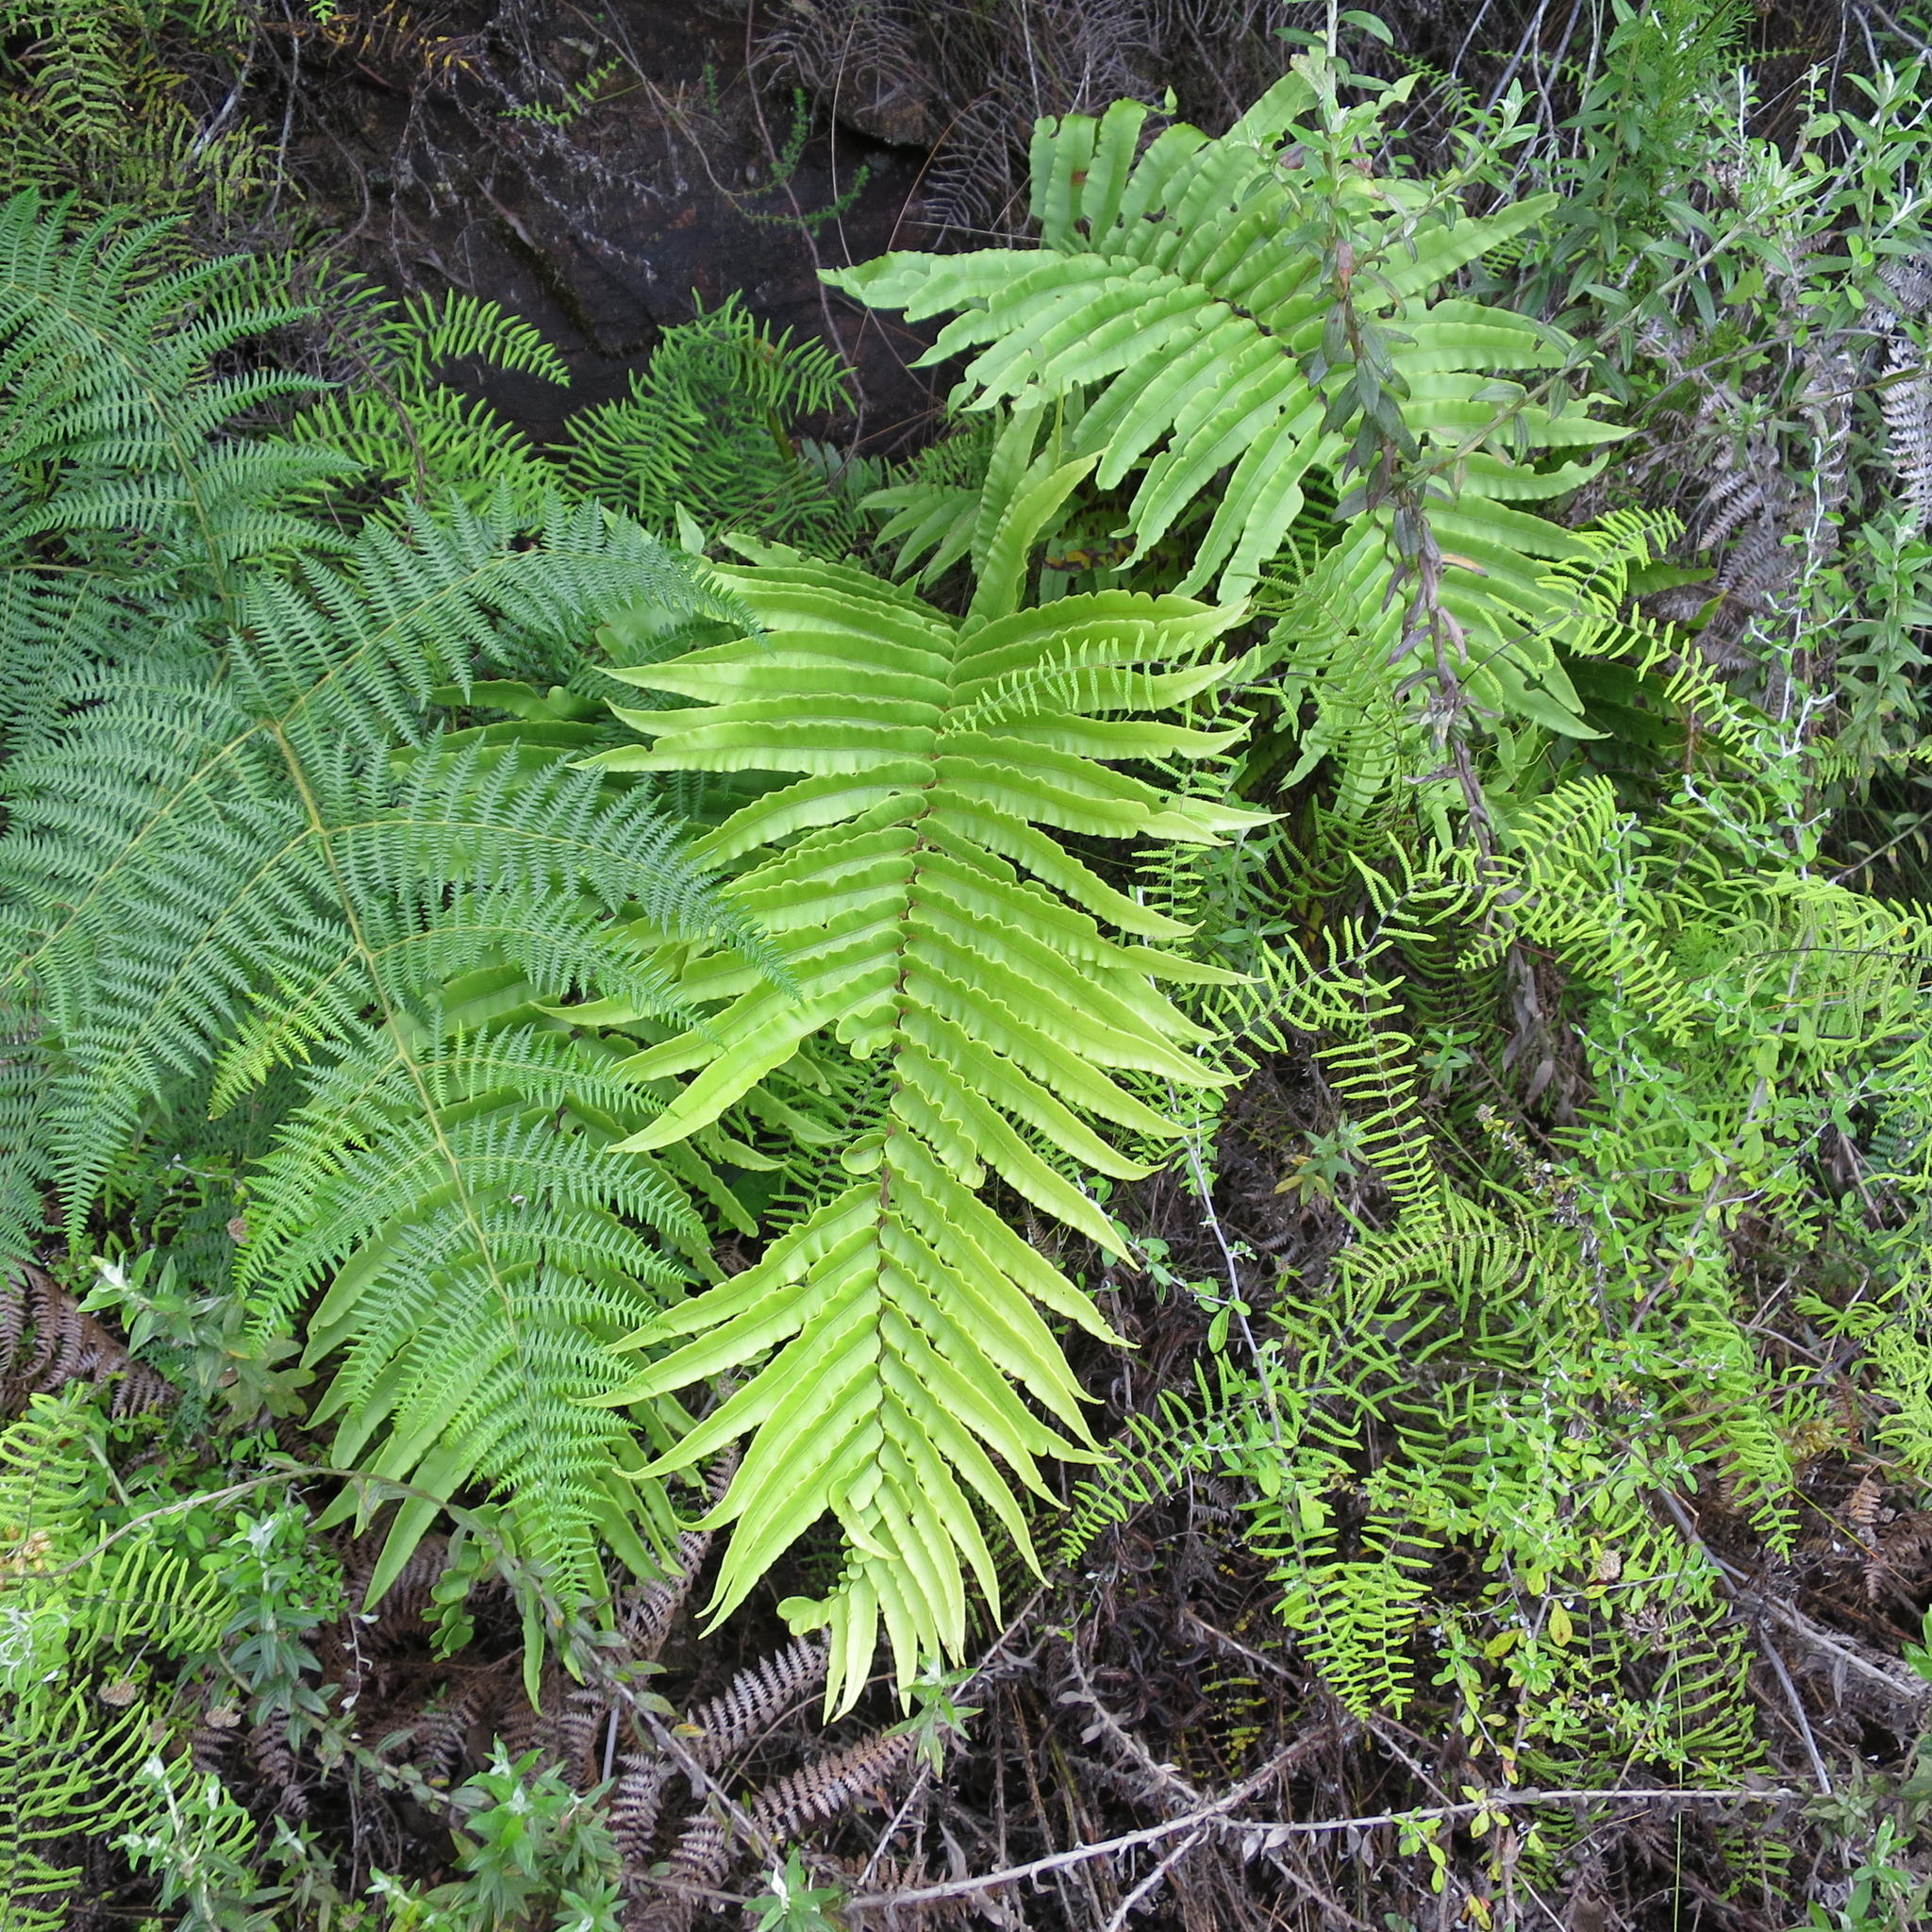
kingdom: Plantae
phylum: Tracheophyta
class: Polypodiopsida
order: Polypodiales
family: Blechnaceae
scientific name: Blechnaceae
